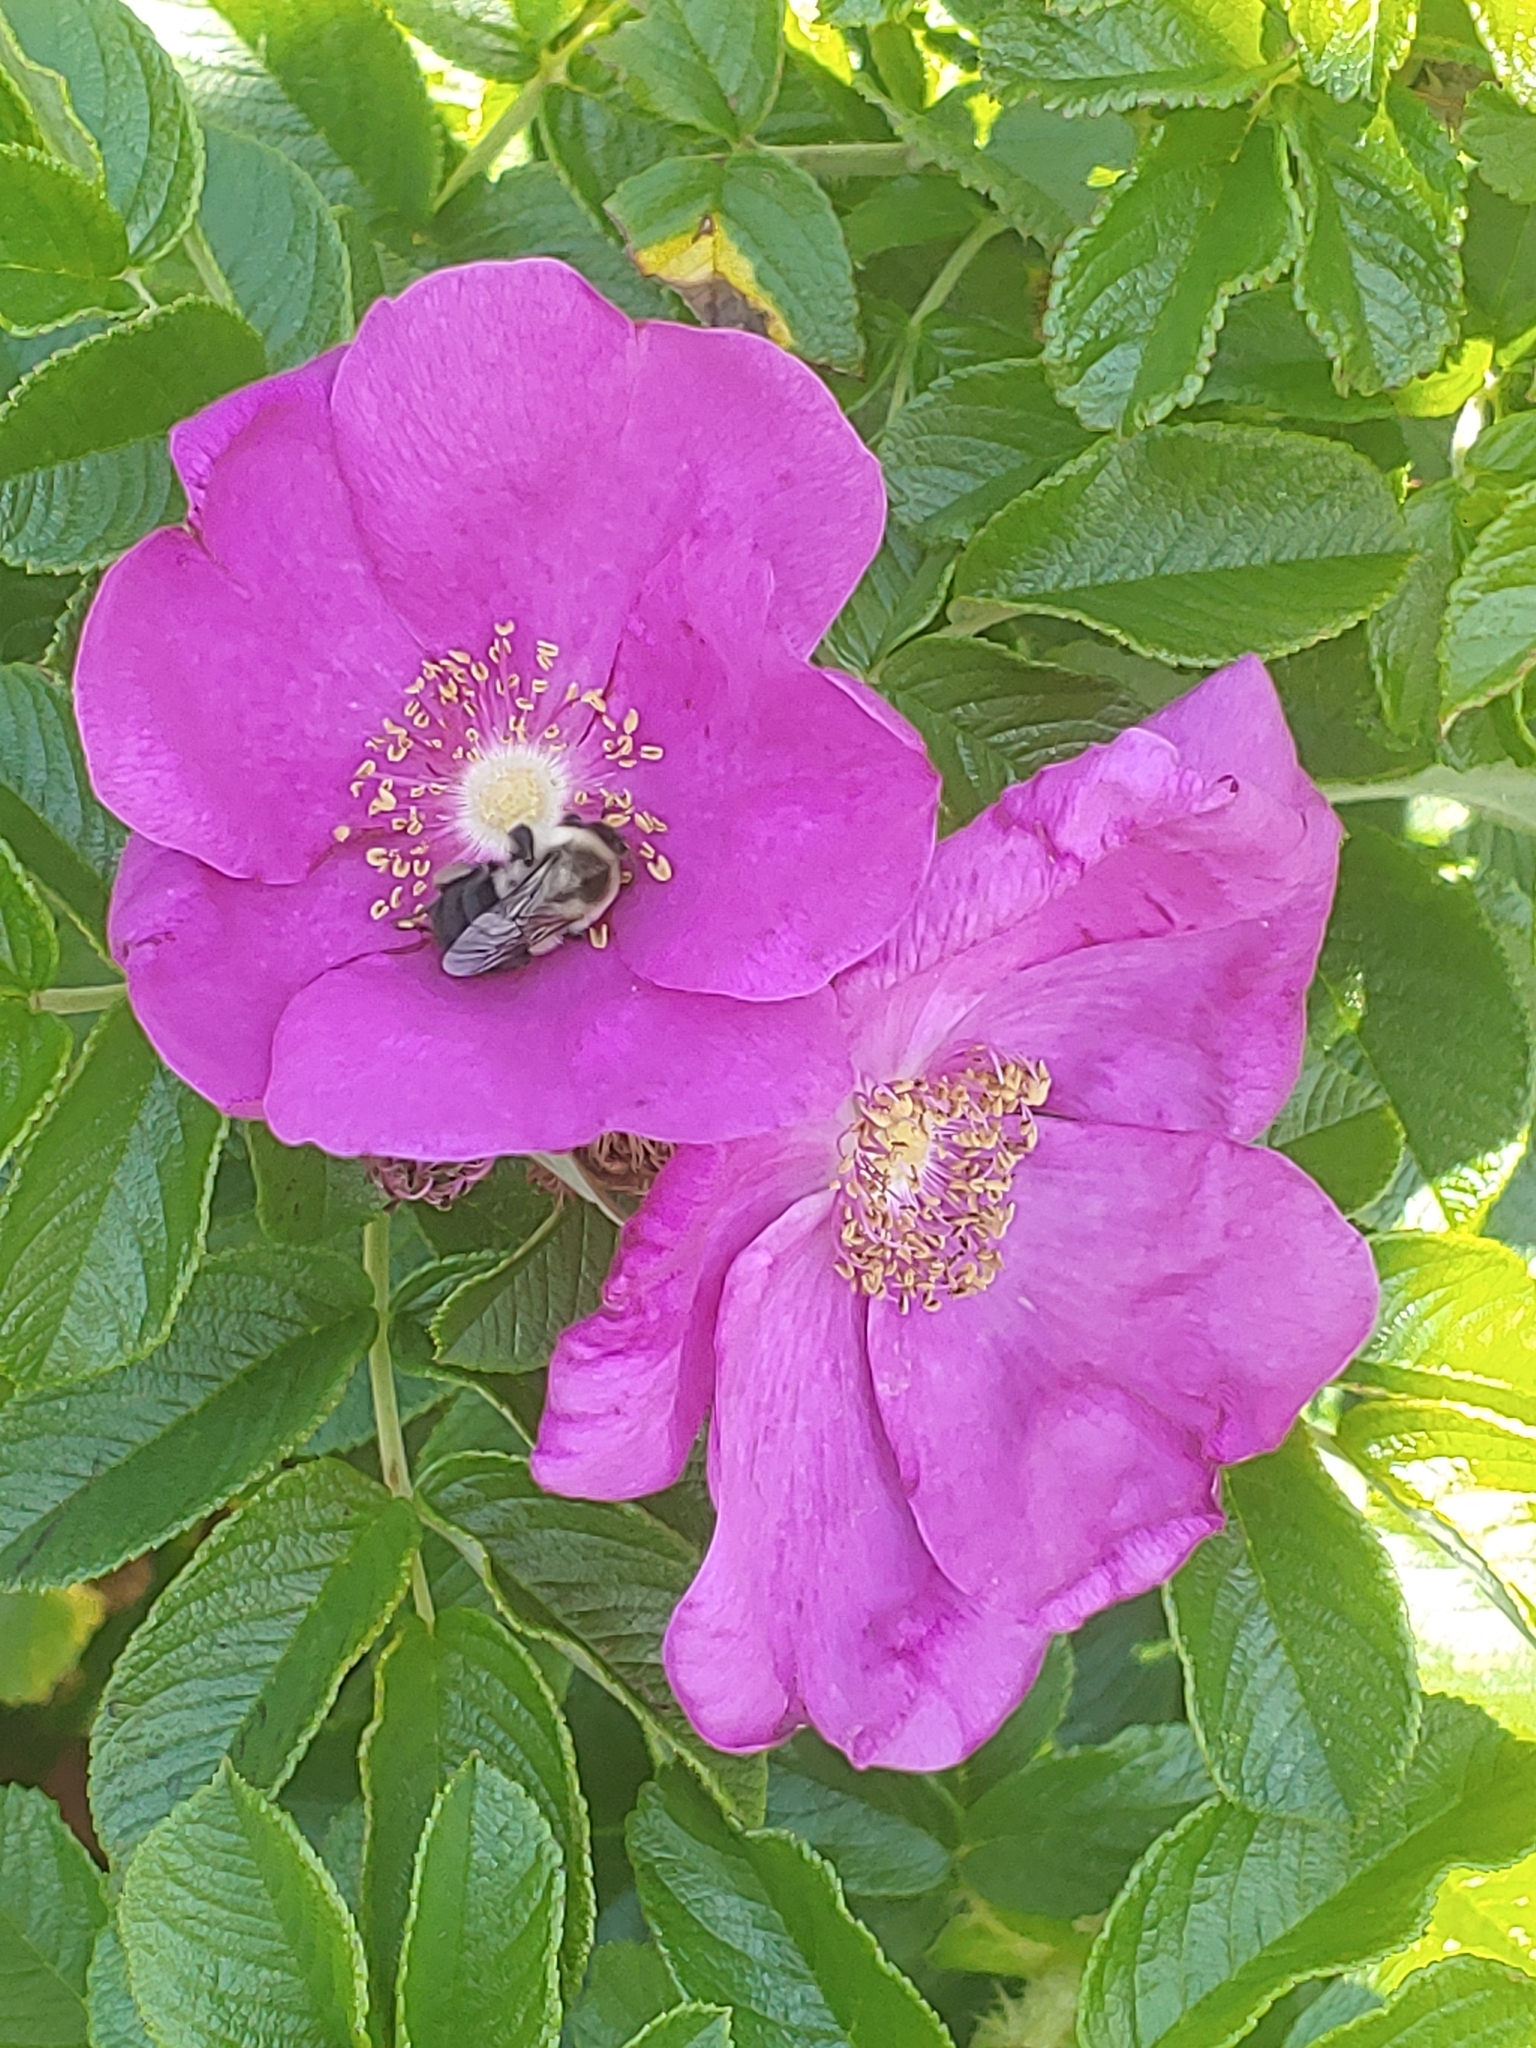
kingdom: Plantae
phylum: Tracheophyta
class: Magnoliopsida
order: Rosales
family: Rosaceae
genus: Rosa
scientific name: Rosa rugosa
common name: Japanese rose
